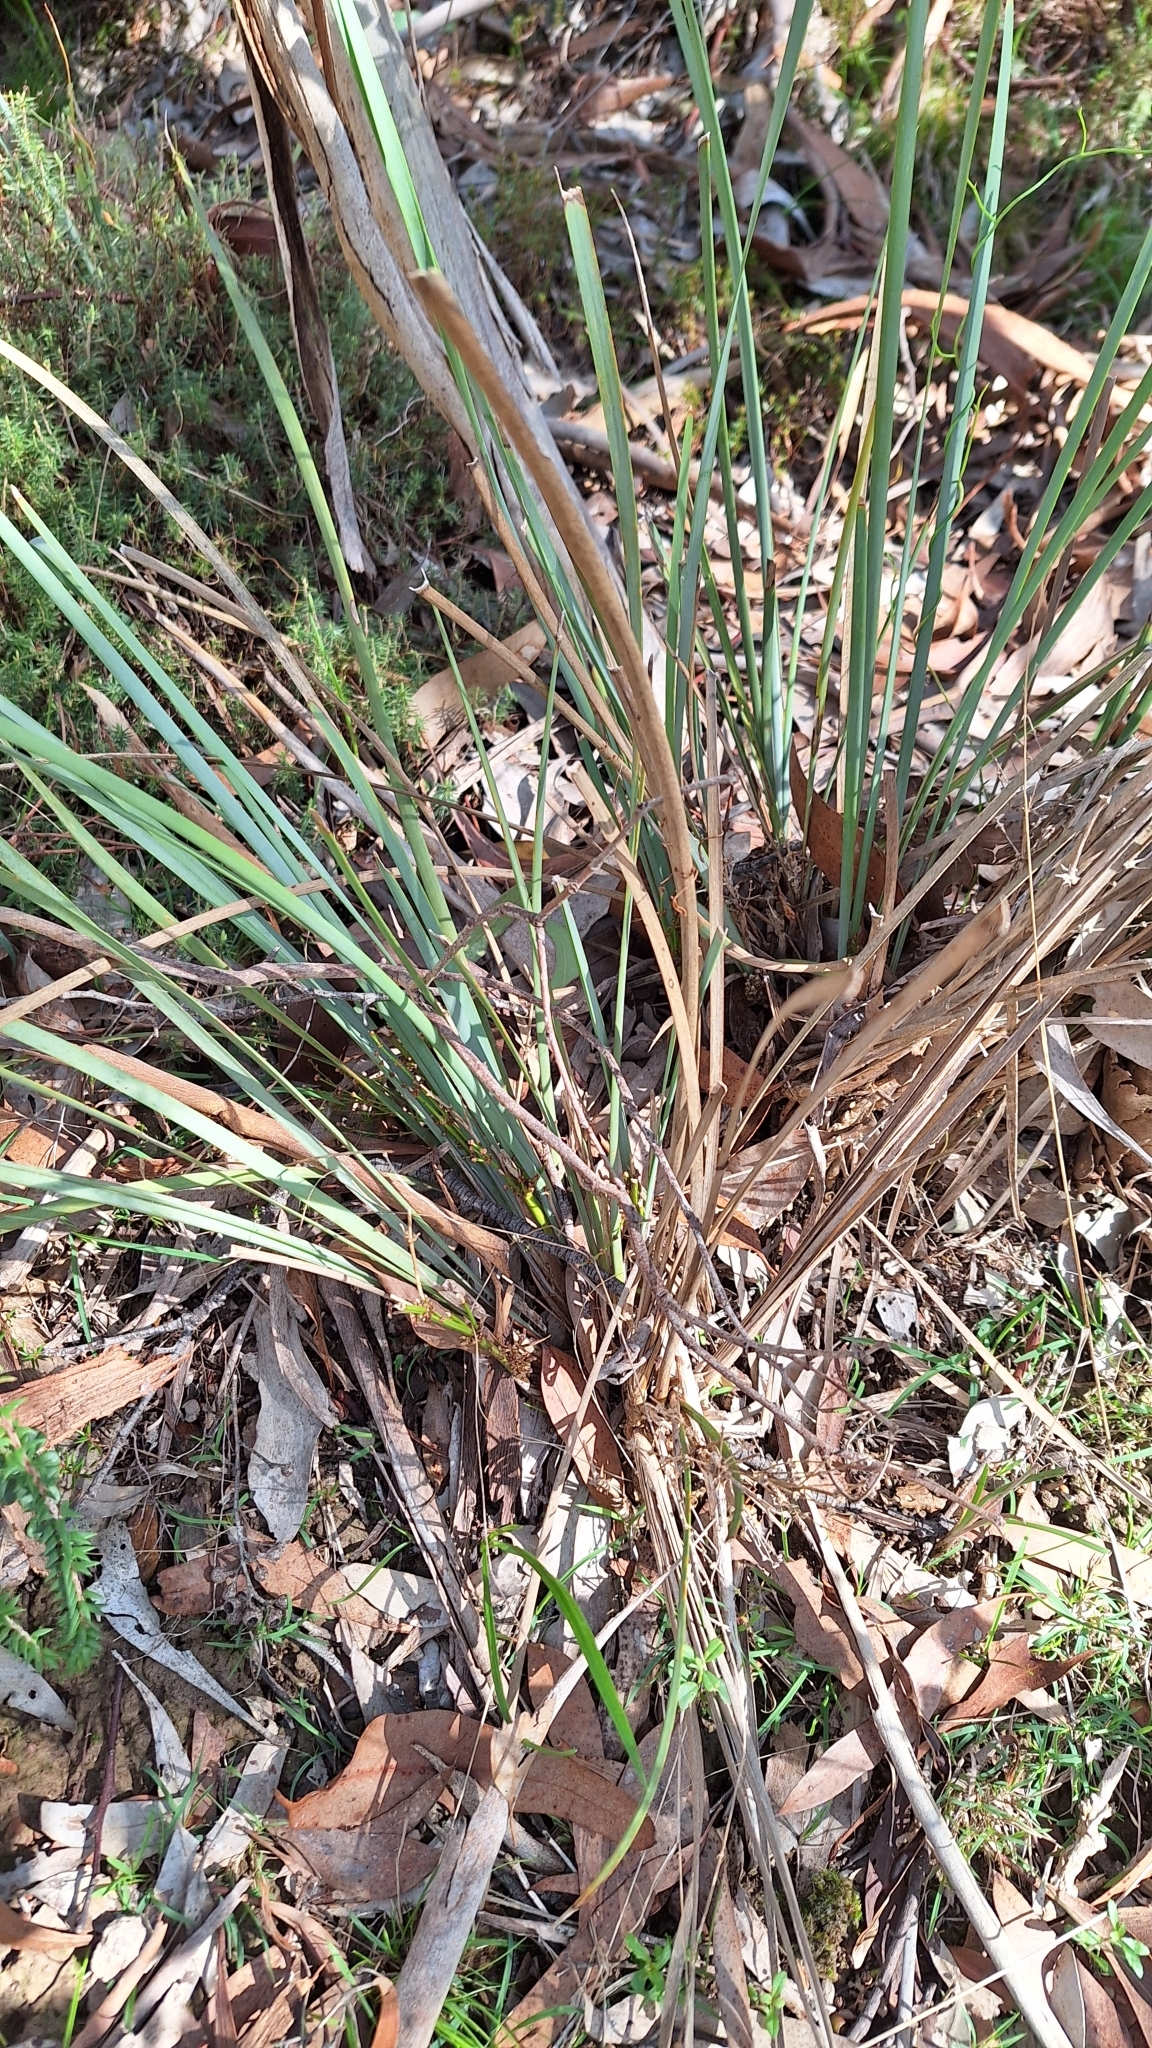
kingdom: Plantae
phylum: Tracheophyta
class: Liliopsida
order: Asparagales
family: Asparagaceae
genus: Lomandra
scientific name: Lomandra multiflora
